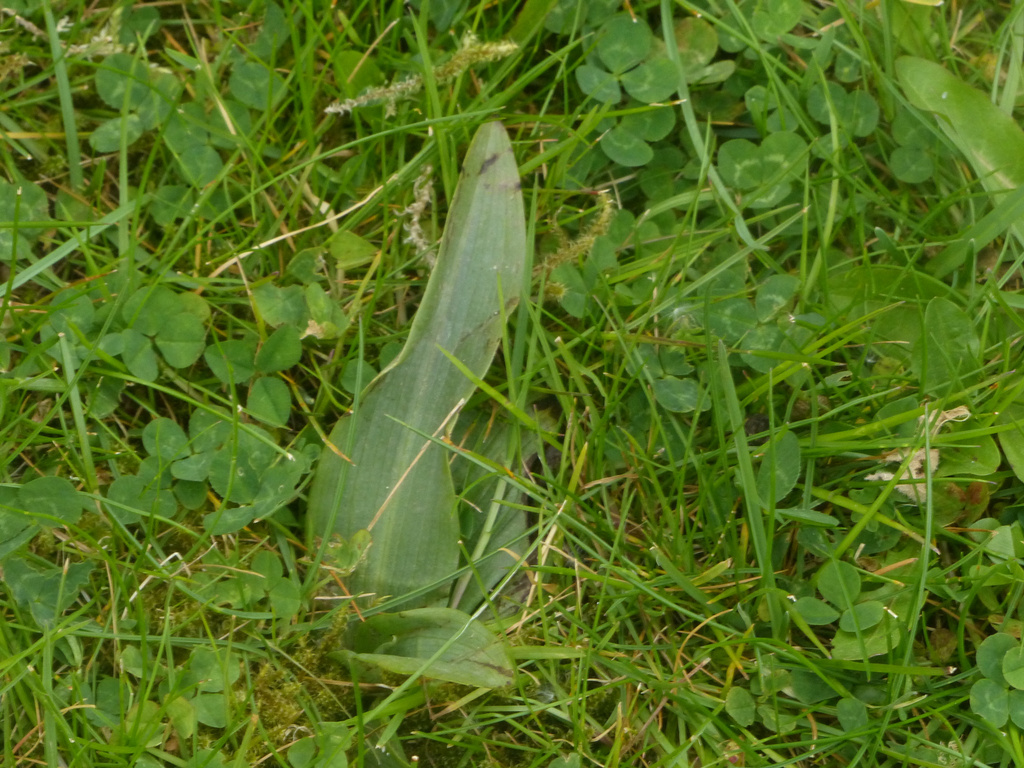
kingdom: Plantae
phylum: Tracheophyta
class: Liliopsida
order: Asparagales
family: Orchidaceae
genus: Ophrys
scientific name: Ophrys apifera
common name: Bee orchid
